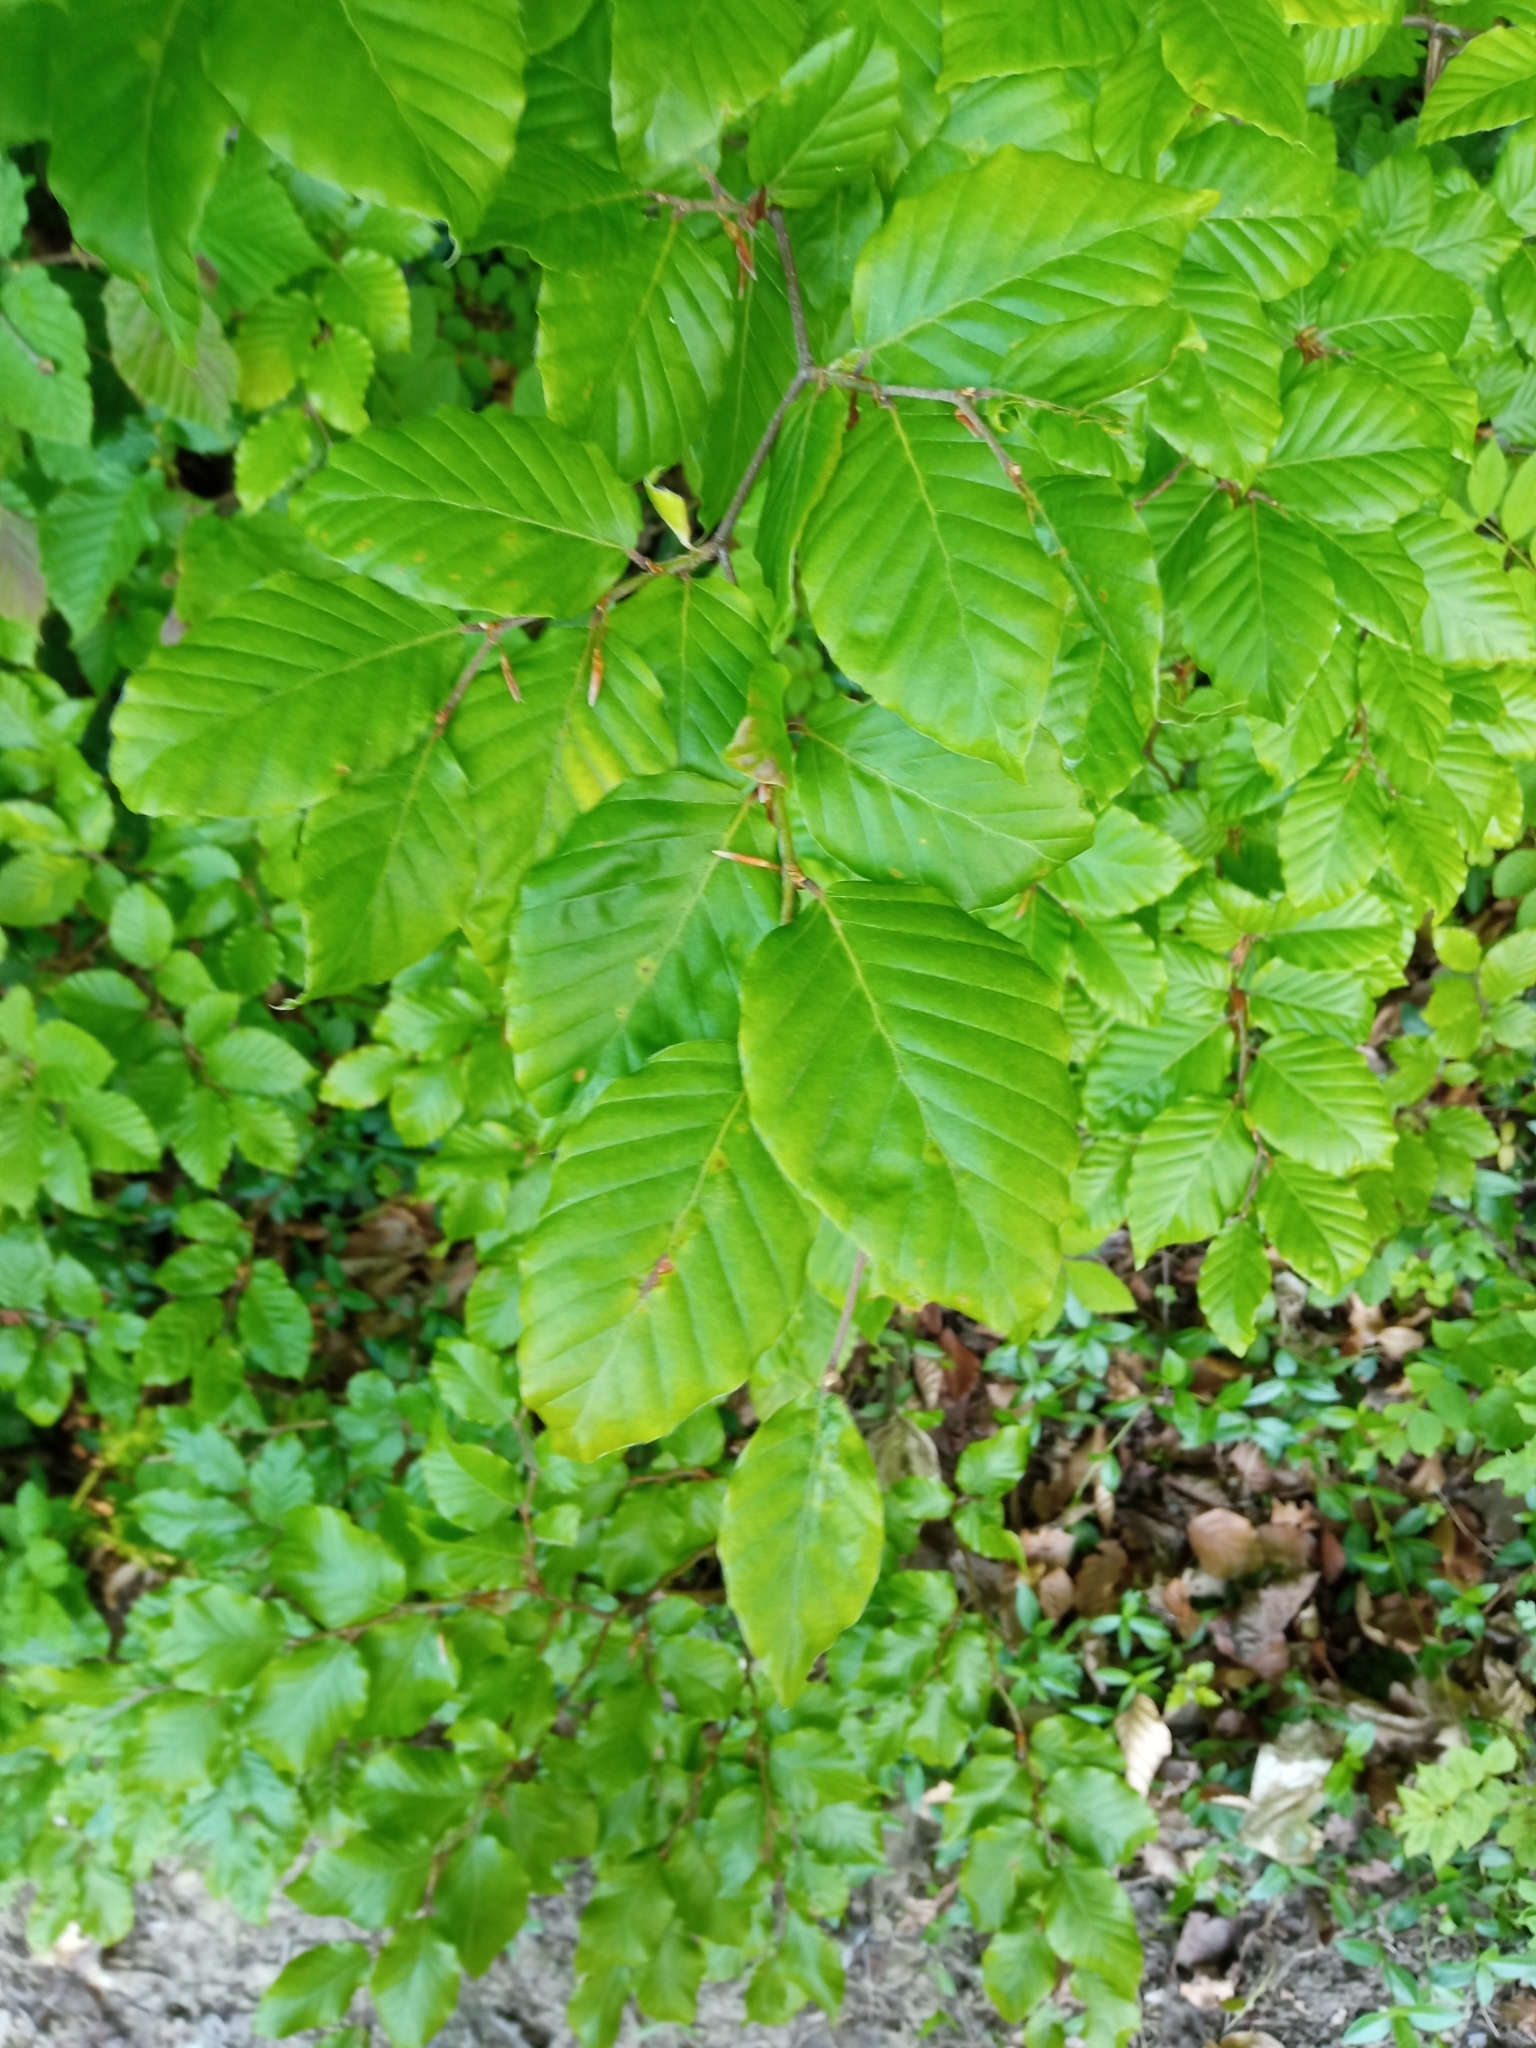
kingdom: Plantae
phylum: Tracheophyta
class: Magnoliopsida
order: Fagales
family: Fagaceae
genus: Fagus
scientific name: Fagus sylvatica
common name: Beech
